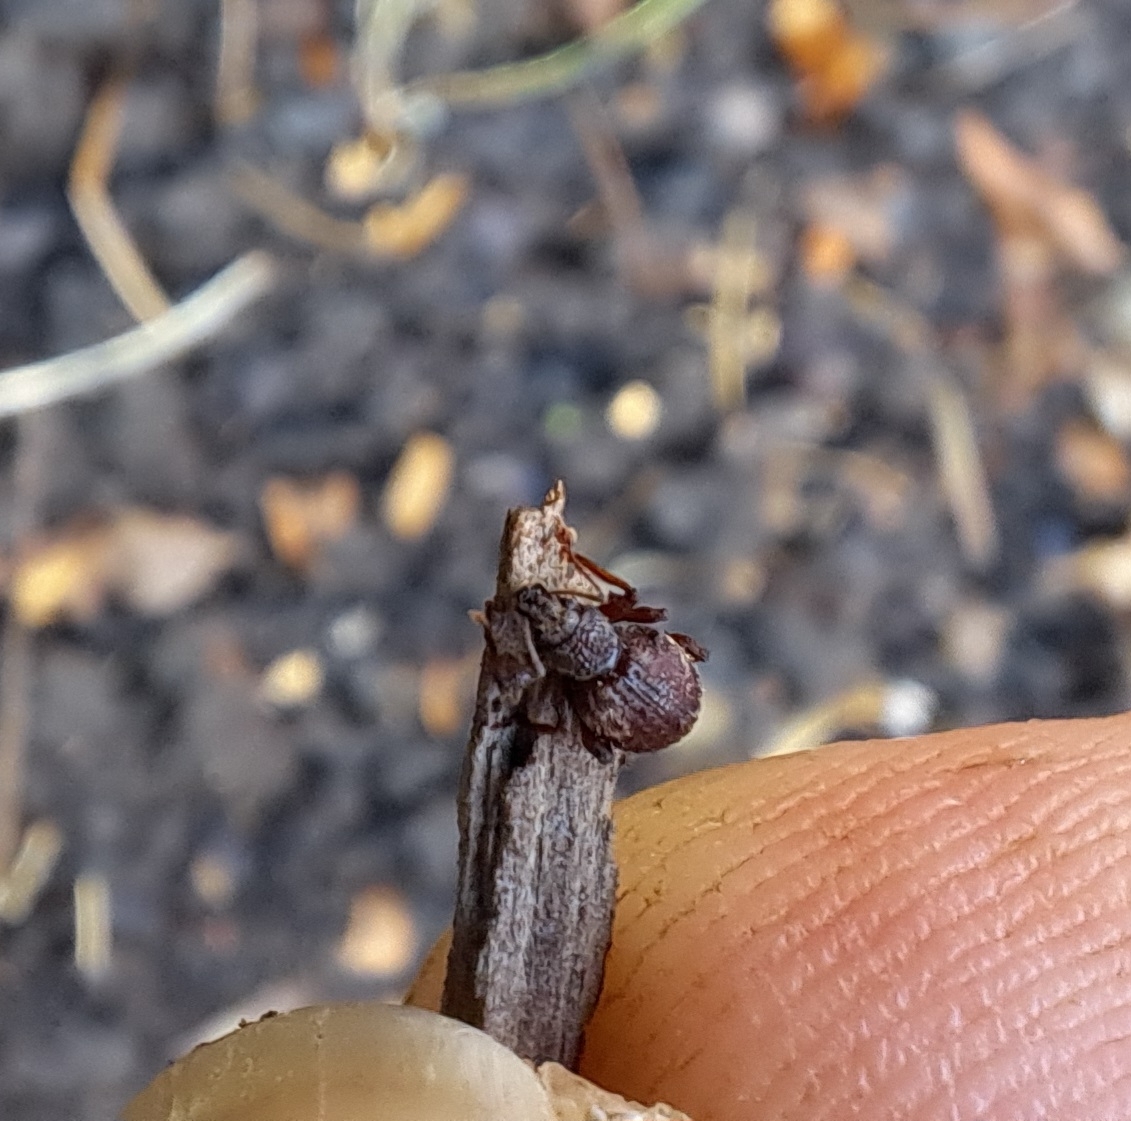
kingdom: Animalia
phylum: Arthropoda
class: Insecta
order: Coleoptera
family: Curculionidae
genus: Otiorhynchus
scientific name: Otiorhynchus crataegi
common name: Privet weevil
